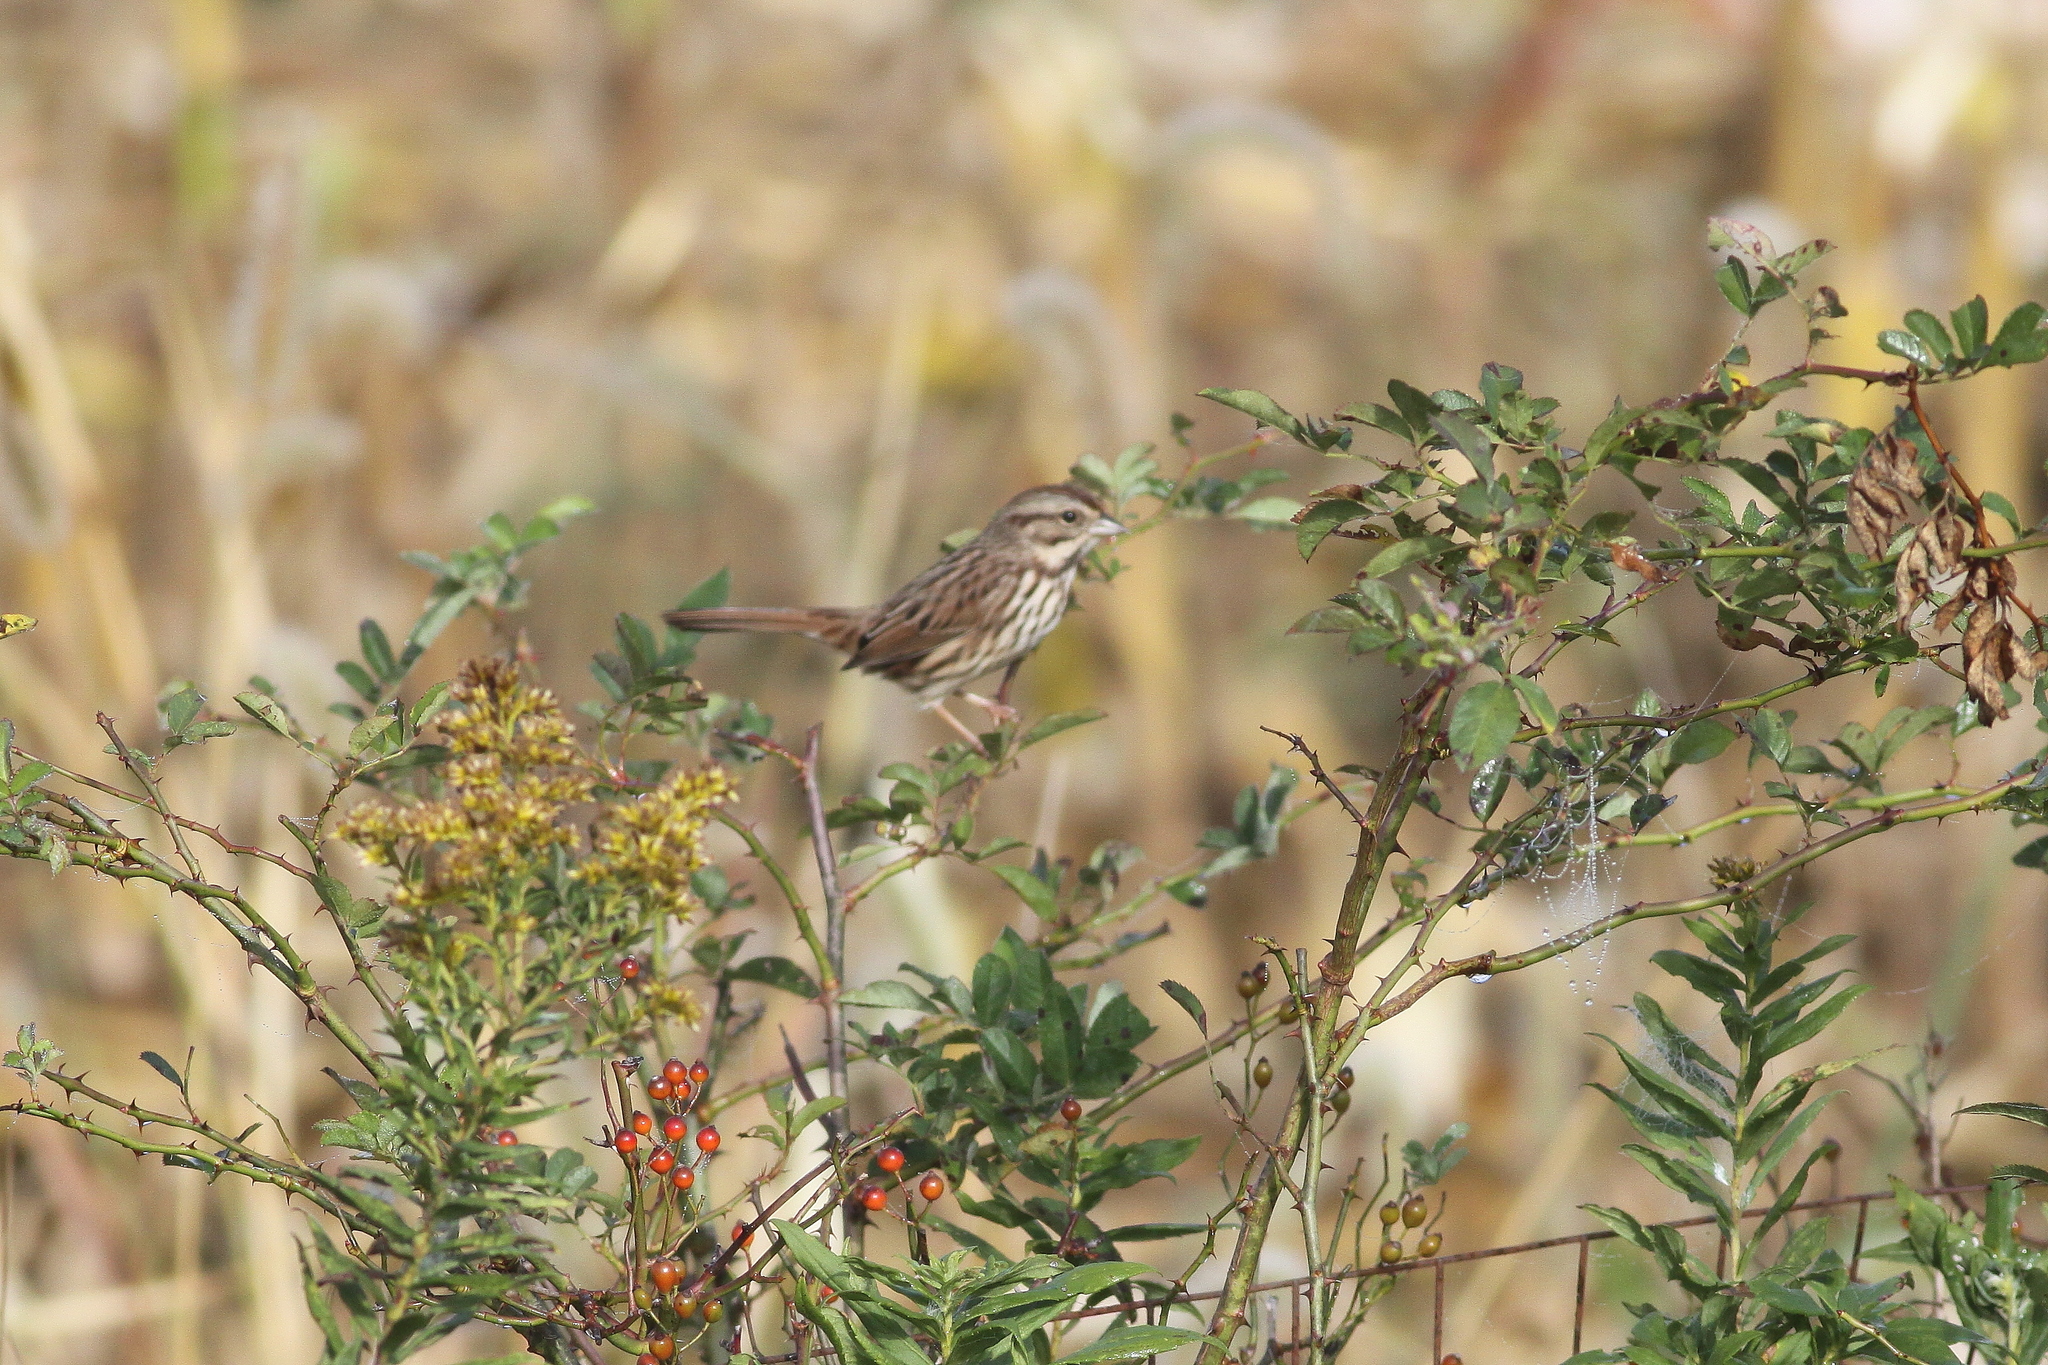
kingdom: Animalia
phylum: Chordata
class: Aves
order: Passeriformes
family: Passerellidae
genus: Melospiza
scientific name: Melospiza melodia
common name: Song sparrow
